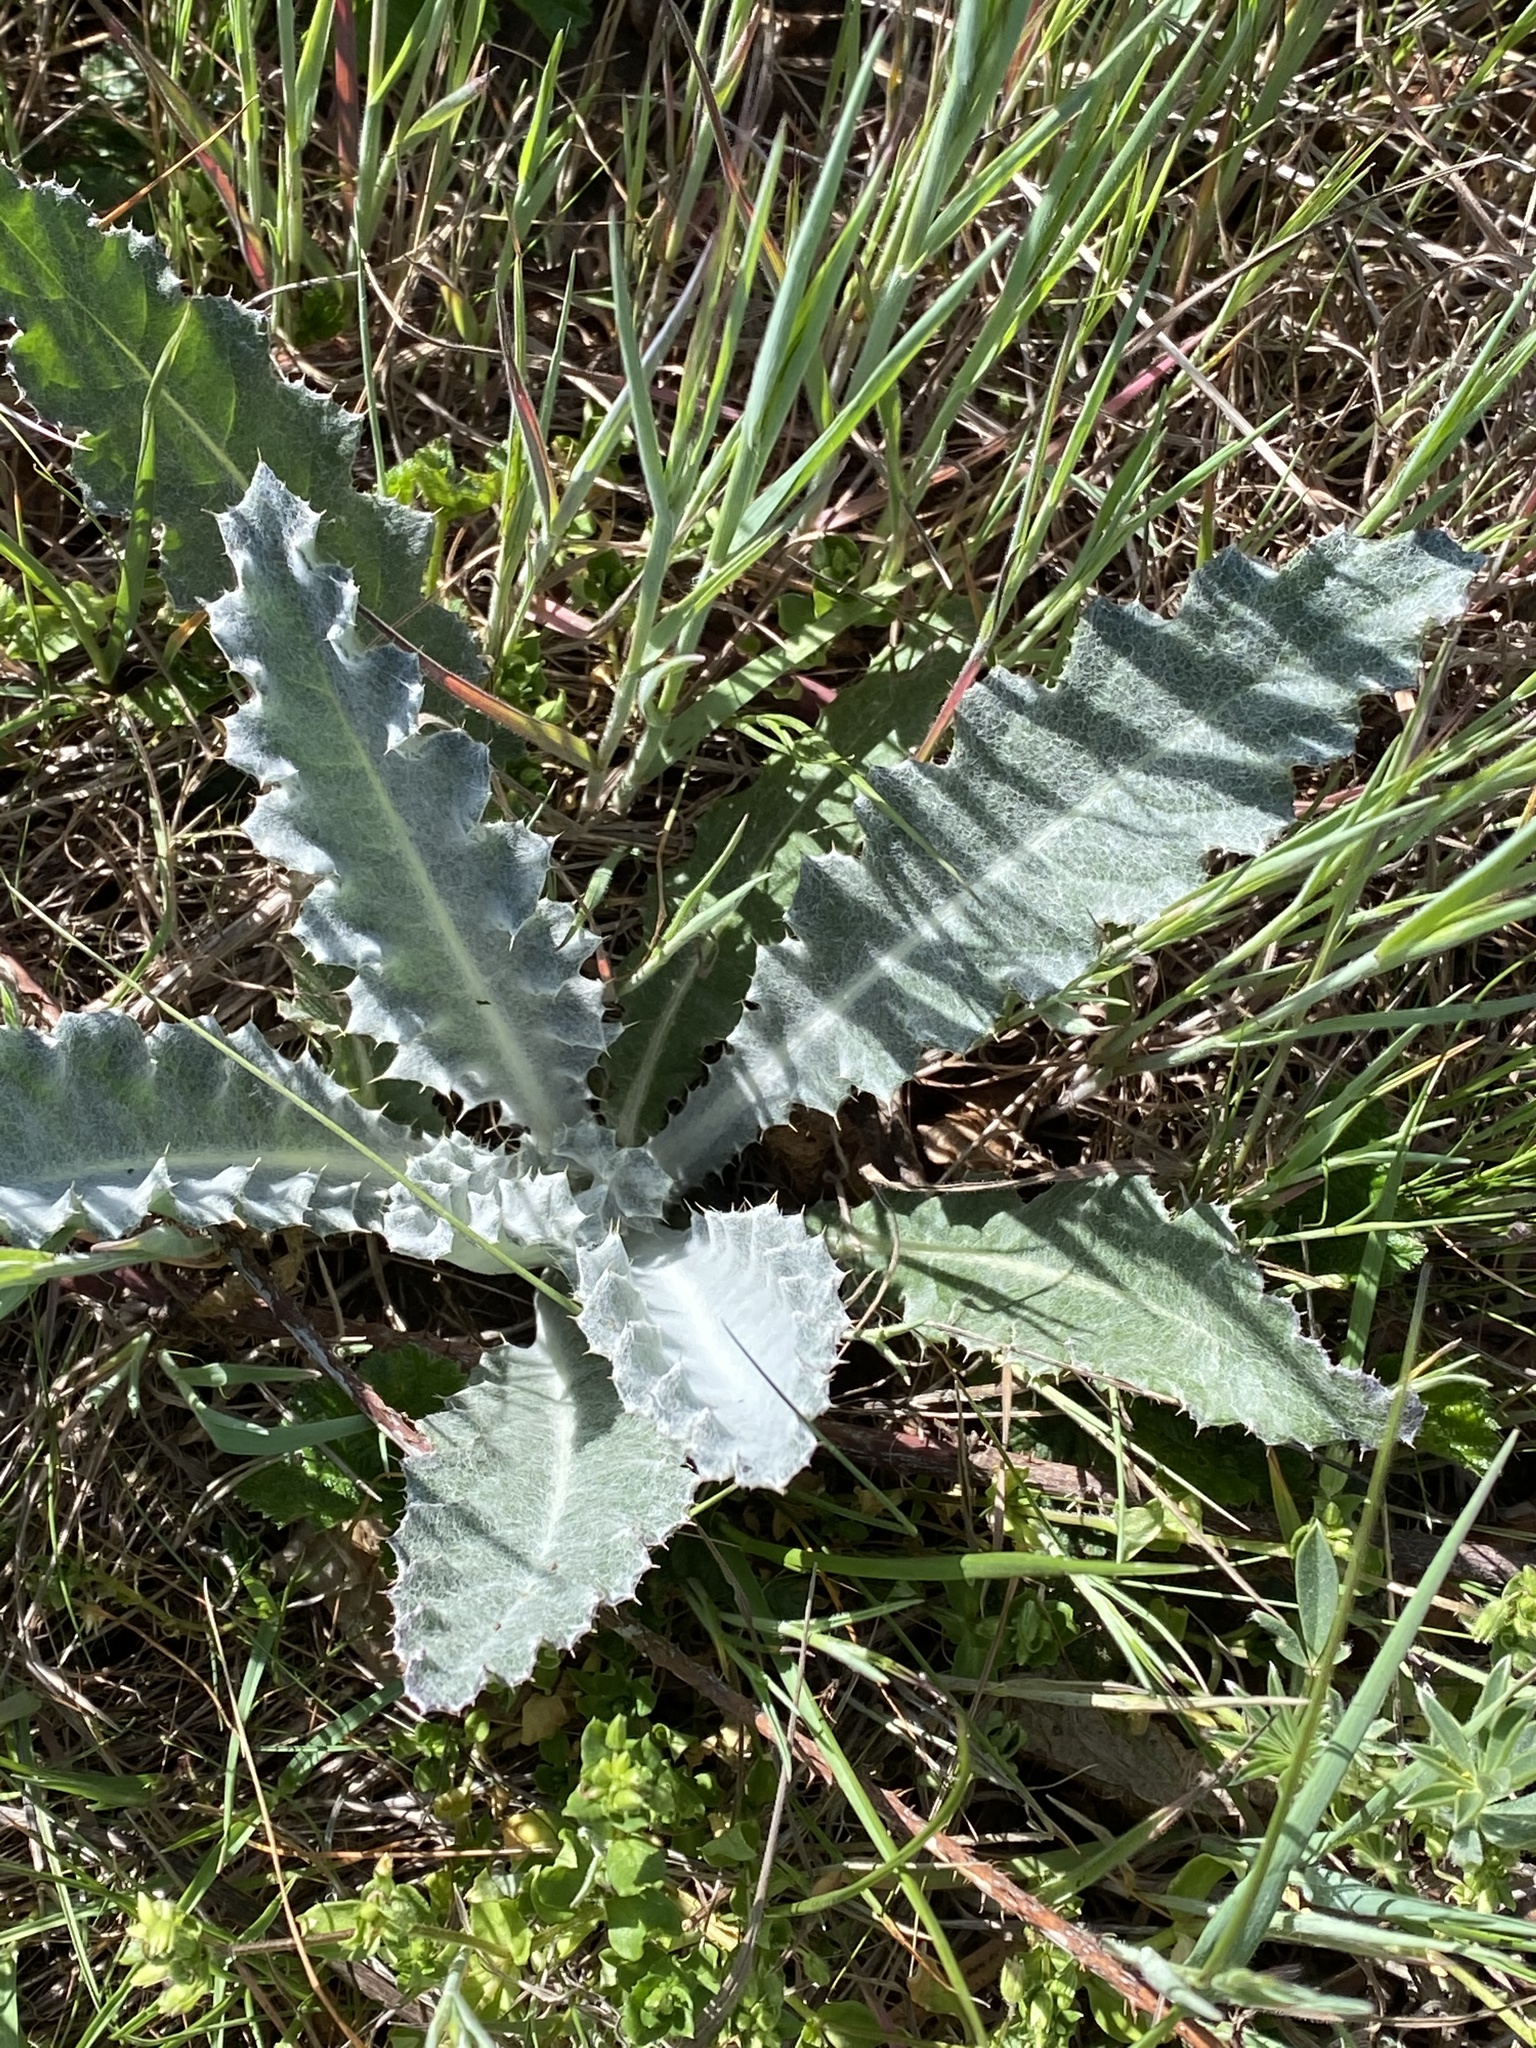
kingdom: Plantae
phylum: Tracheophyta
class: Magnoliopsida
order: Asterales
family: Asteraceae
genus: Cirsium
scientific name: Cirsium occidentale
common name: Western thistle
